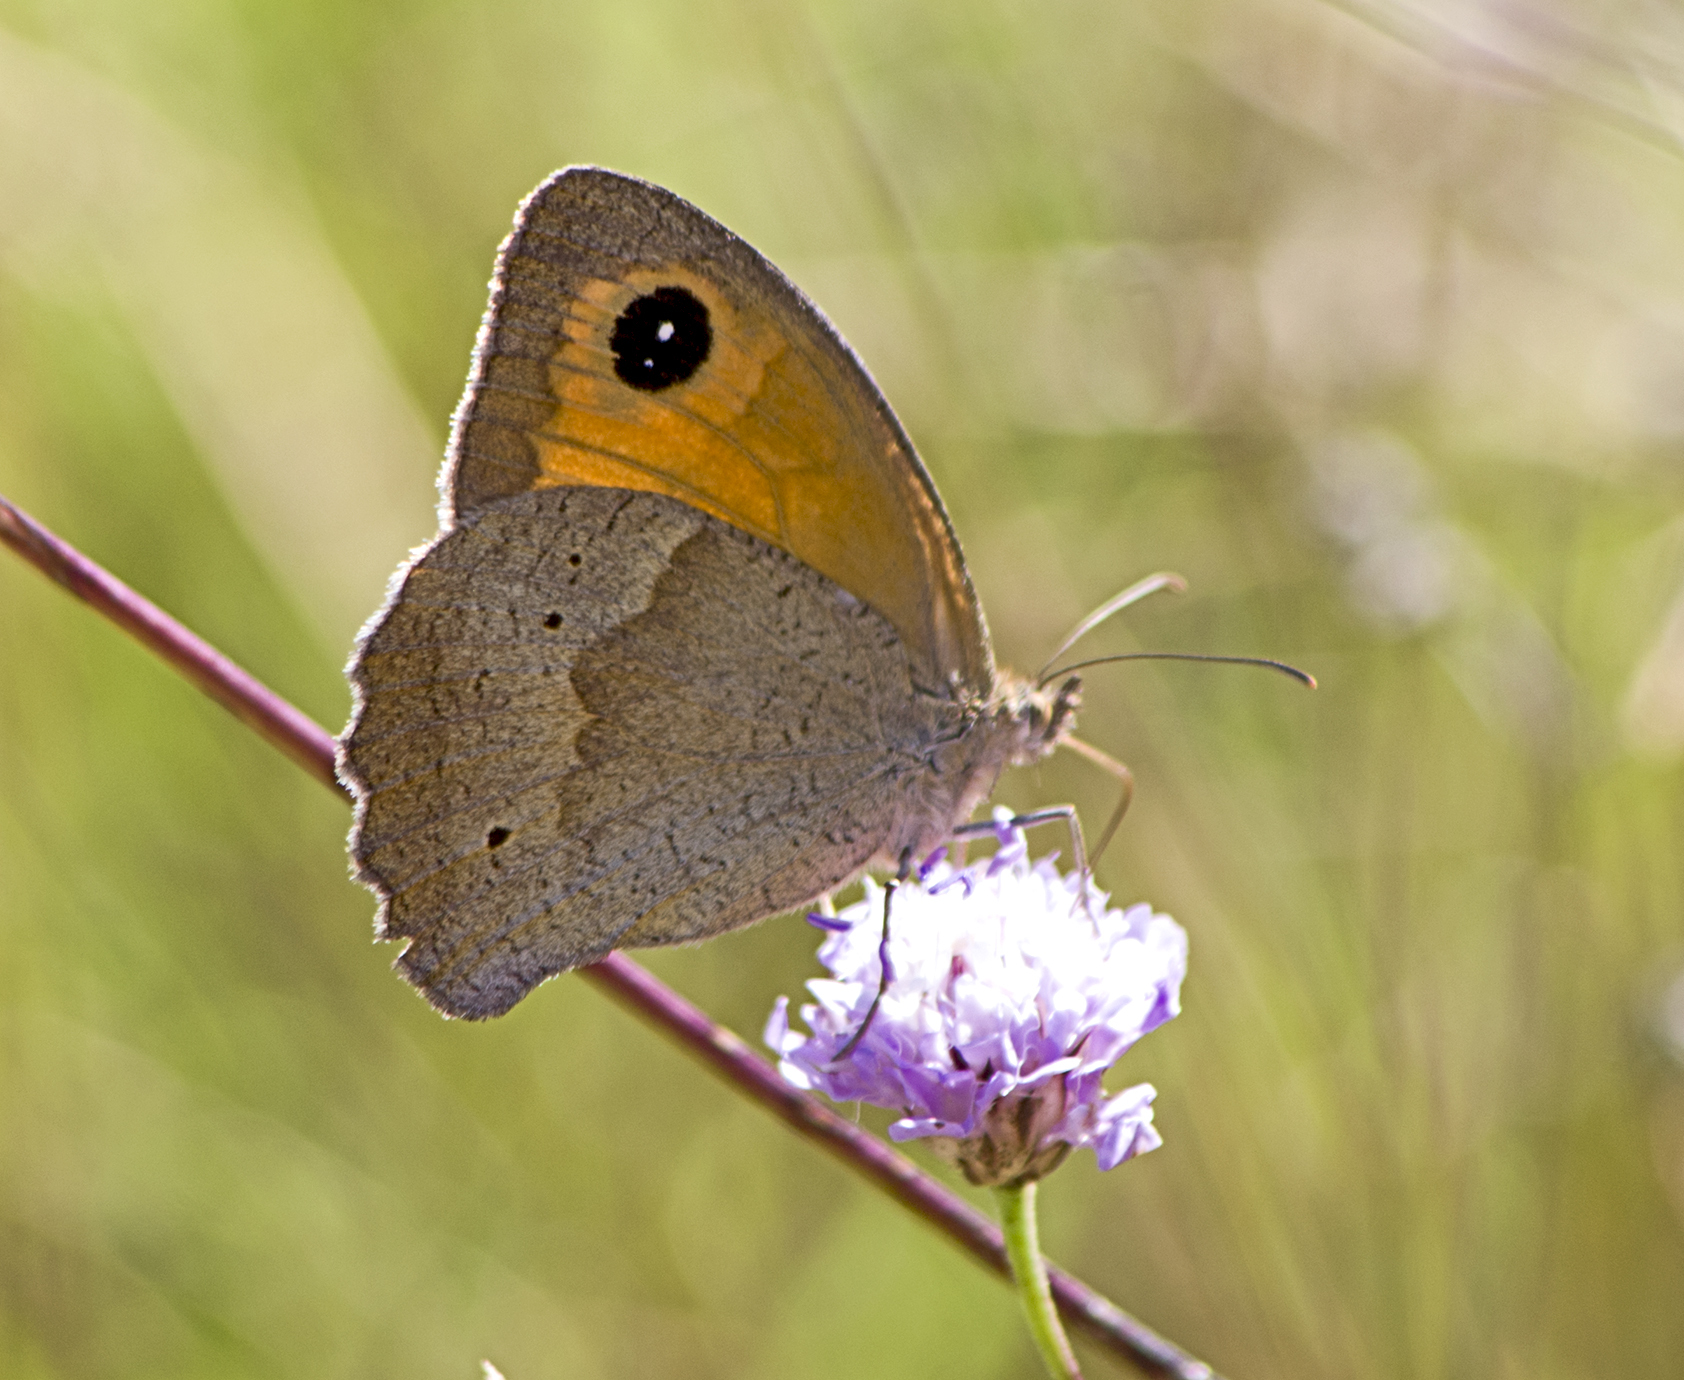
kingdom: Animalia
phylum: Arthropoda
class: Insecta
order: Lepidoptera
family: Nymphalidae
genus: Maniola
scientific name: Maniola jurtina
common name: Meadow brown
